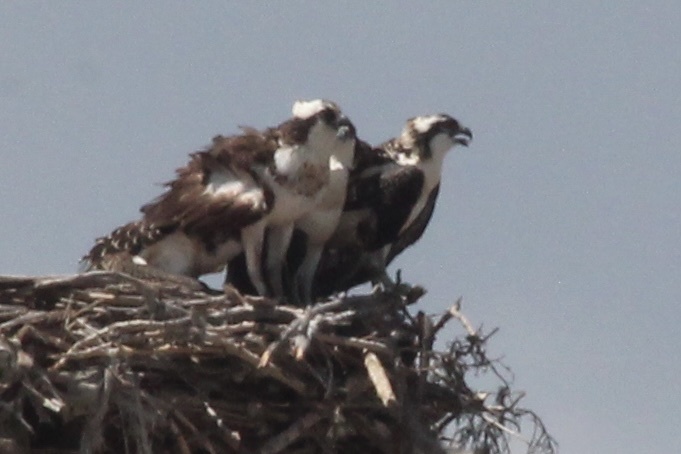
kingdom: Animalia
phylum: Chordata
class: Aves
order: Accipitriformes
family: Pandionidae
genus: Pandion
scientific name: Pandion haliaetus
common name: Osprey
